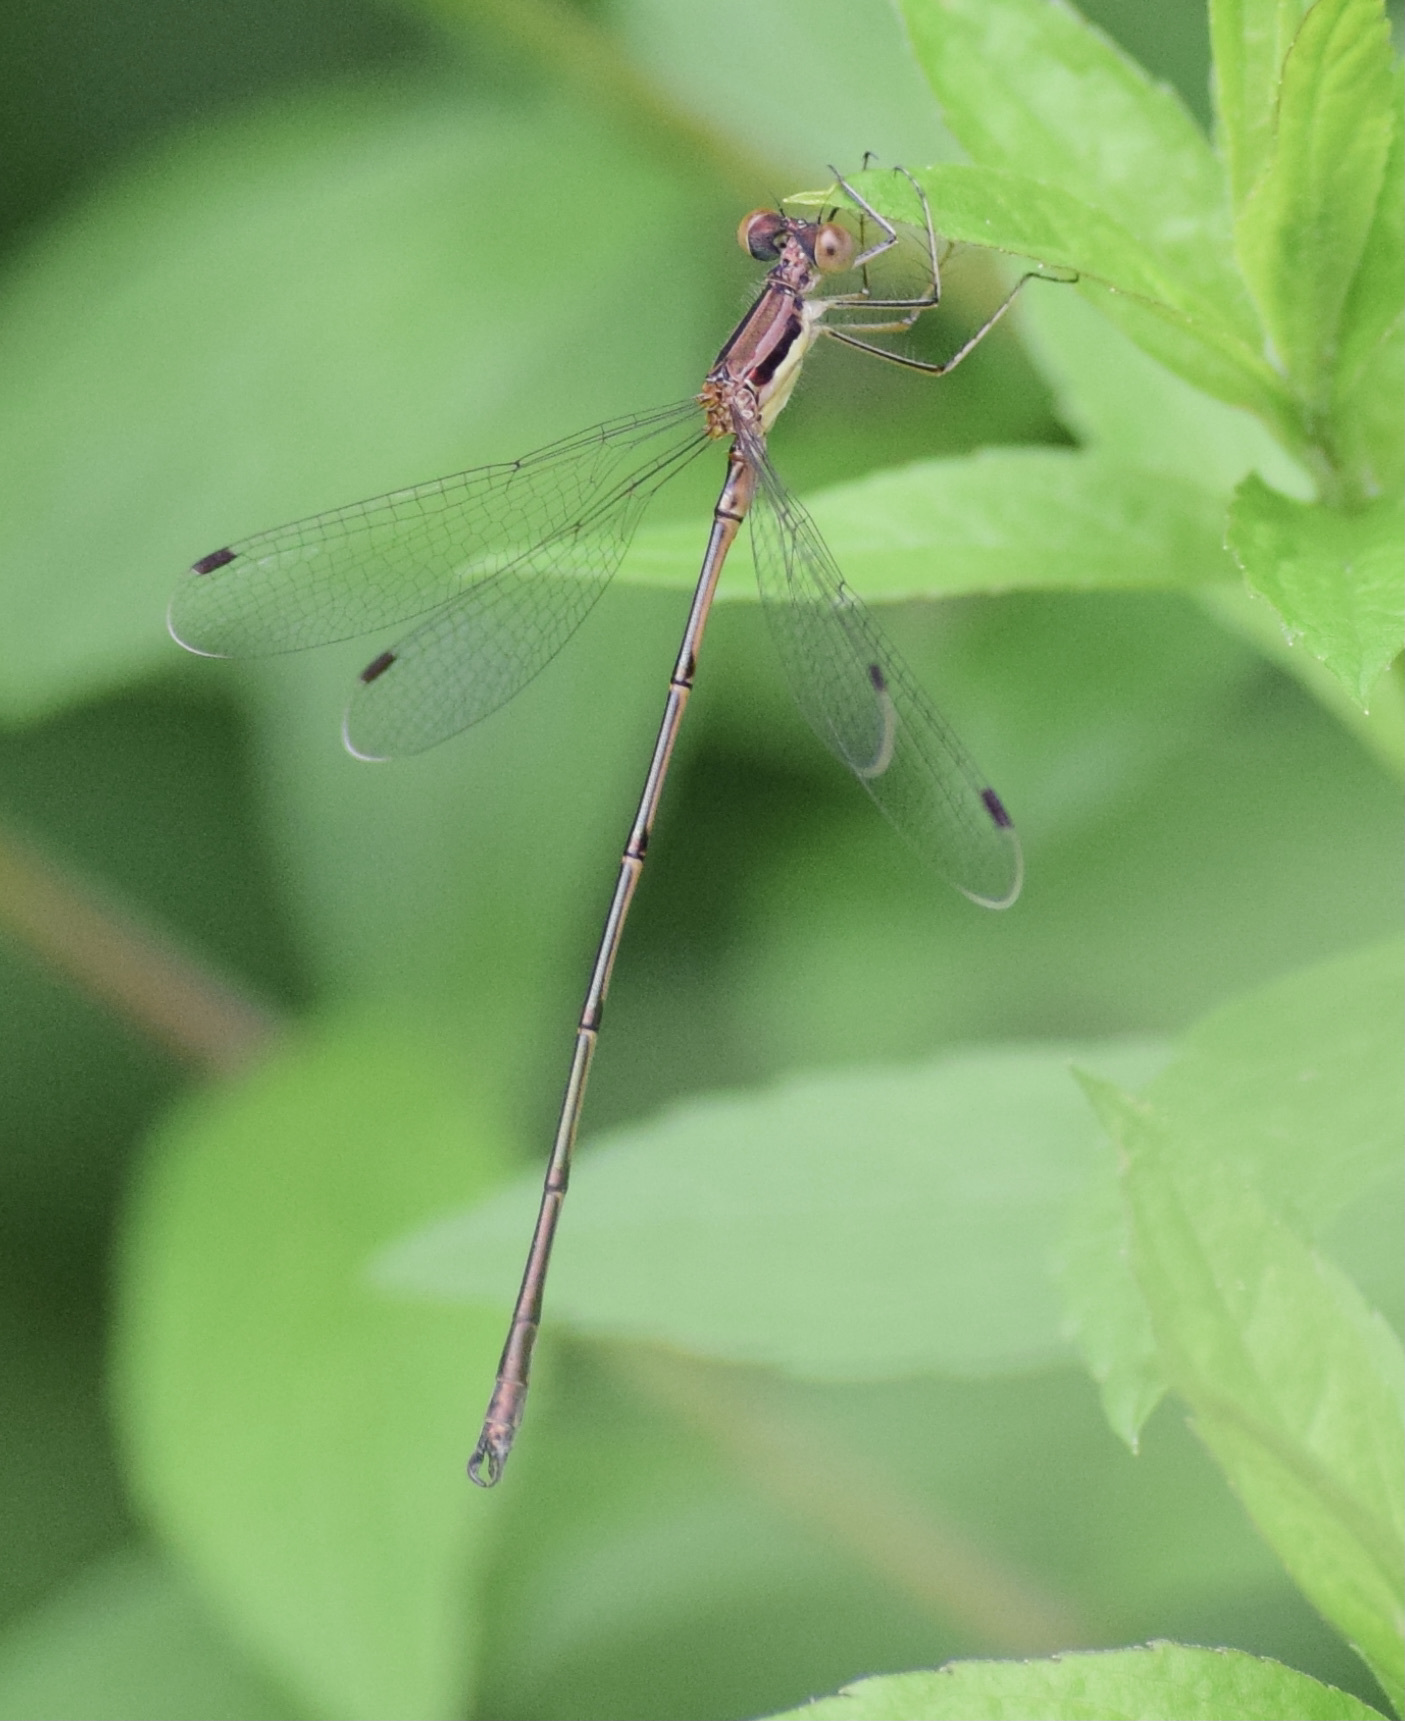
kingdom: Animalia
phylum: Arthropoda
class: Insecta
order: Odonata
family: Lestidae
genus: Lestes
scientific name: Lestes rectangularis
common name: Slender spreadwing
